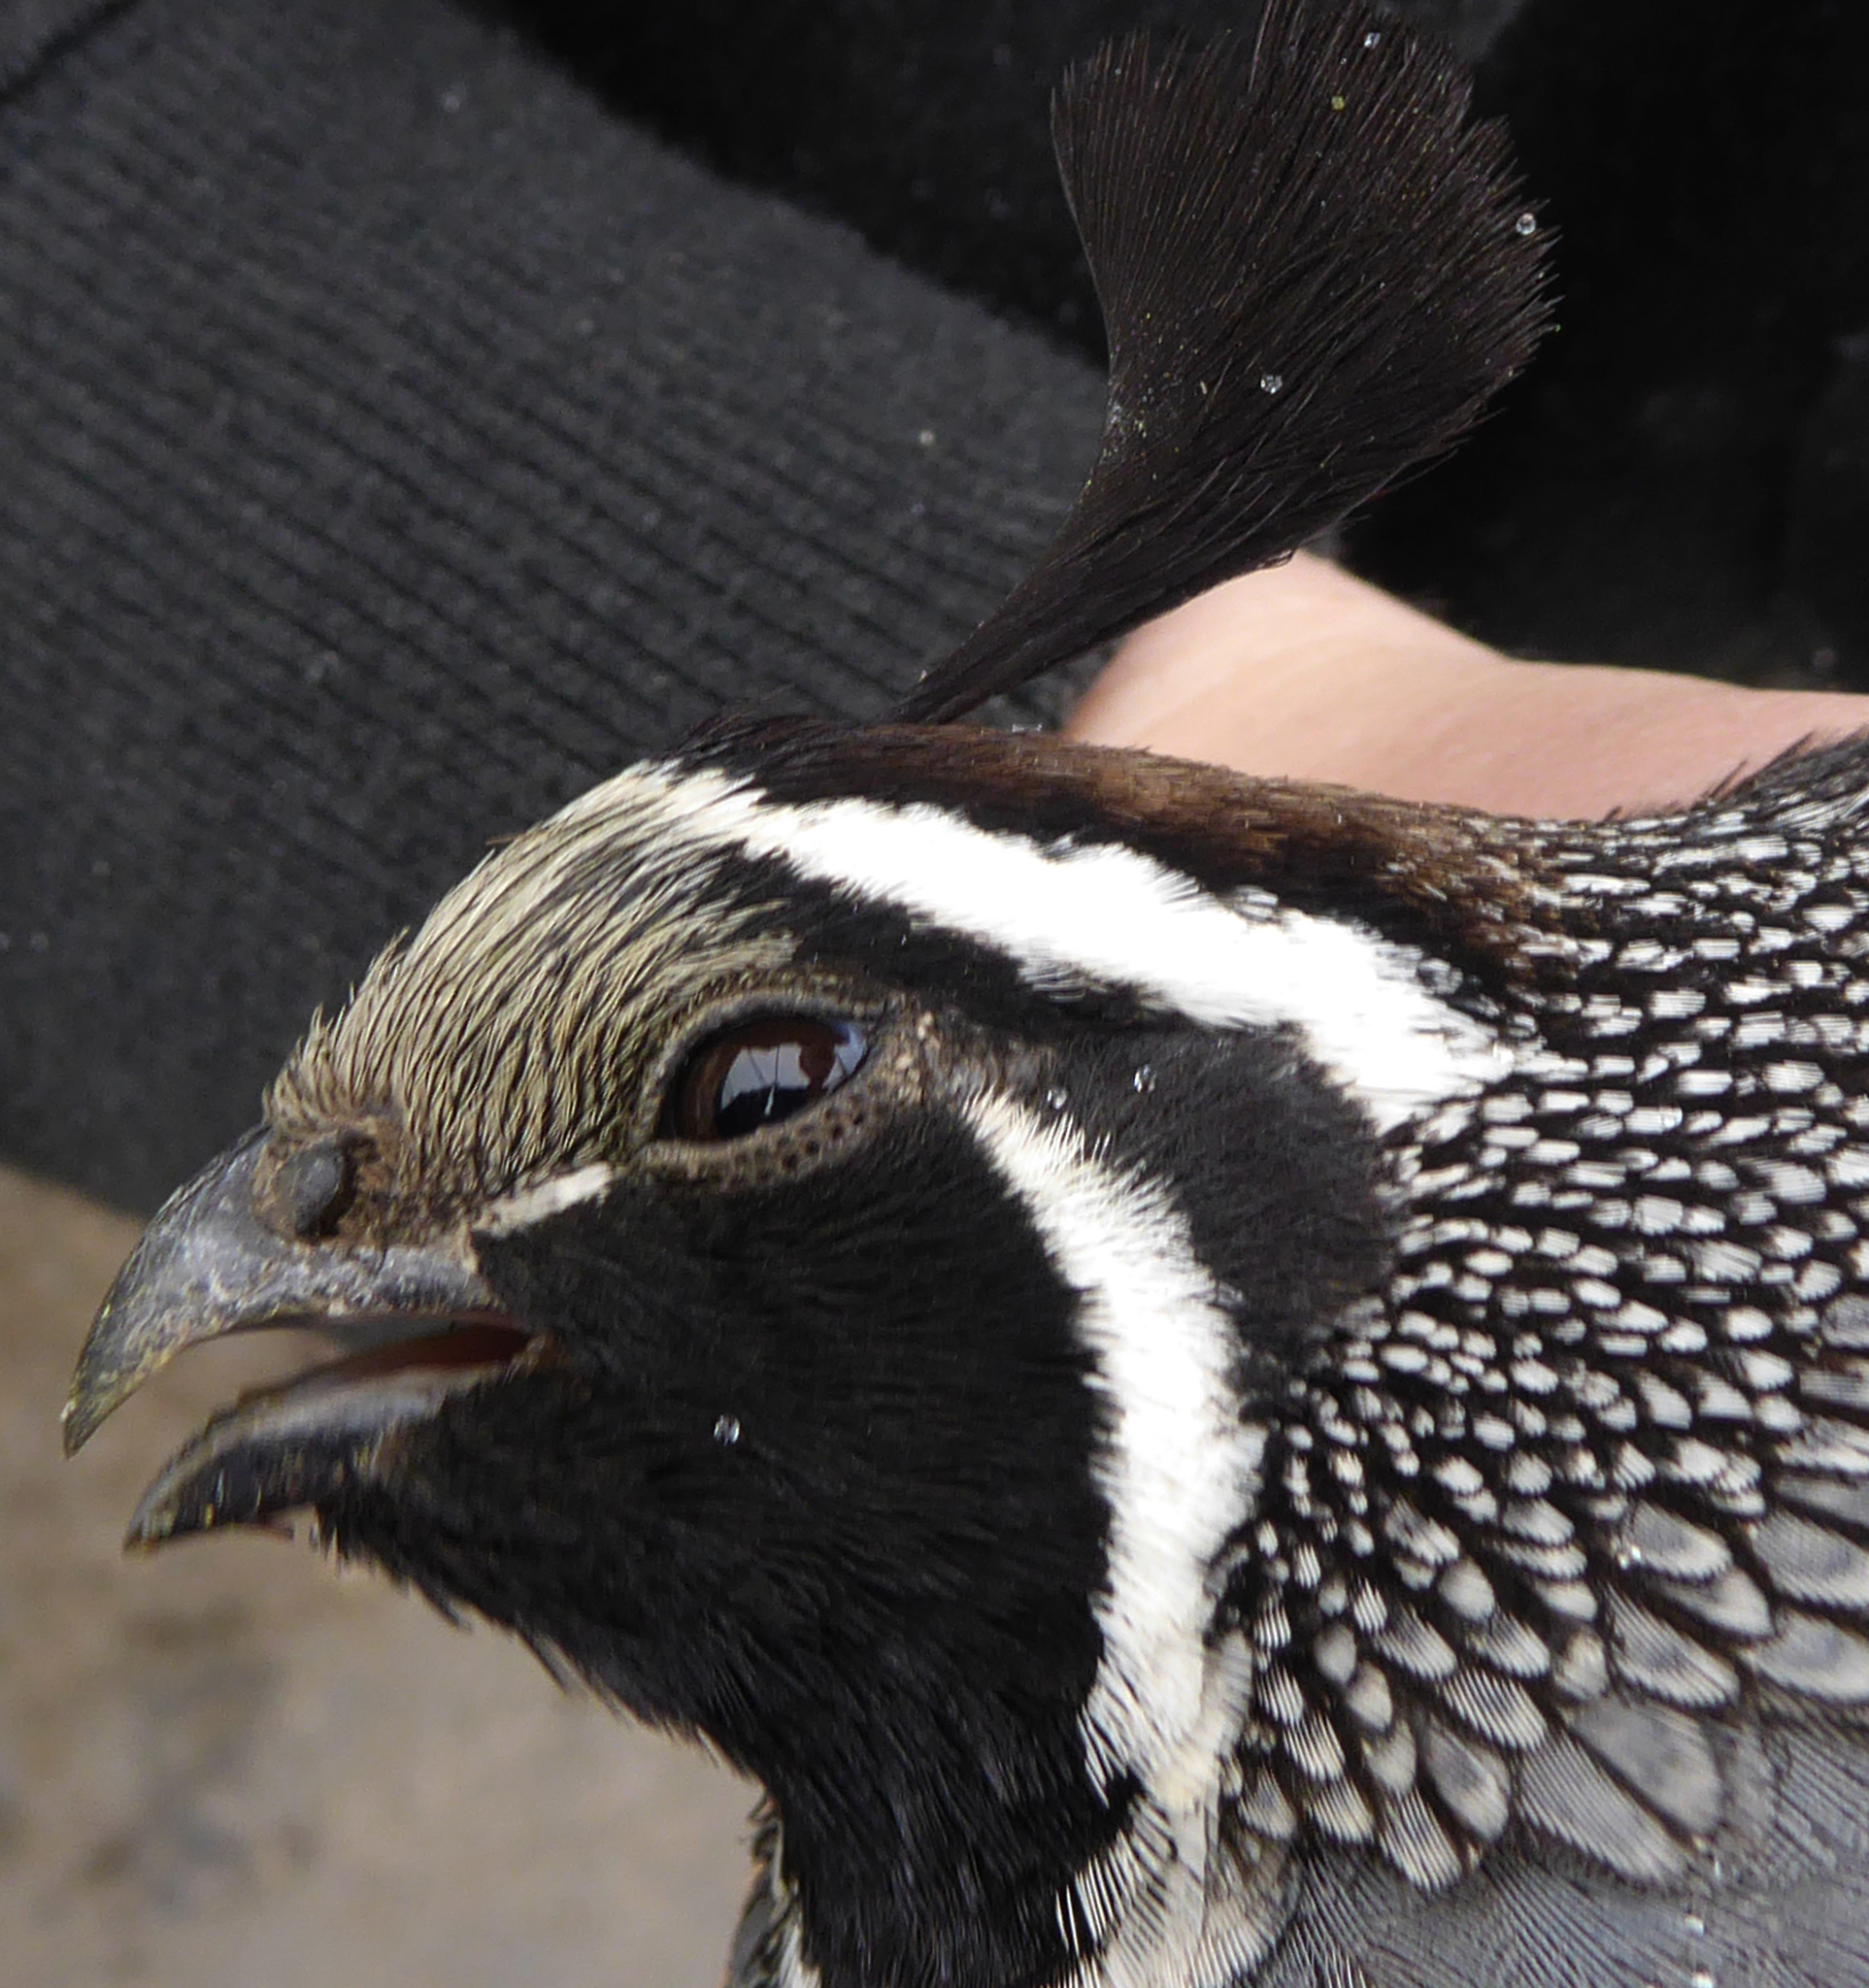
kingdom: Animalia
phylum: Chordata
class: Aves
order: Galliformes
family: Odontophoridae
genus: Callipepla
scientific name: Callipepla californica
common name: California quail
